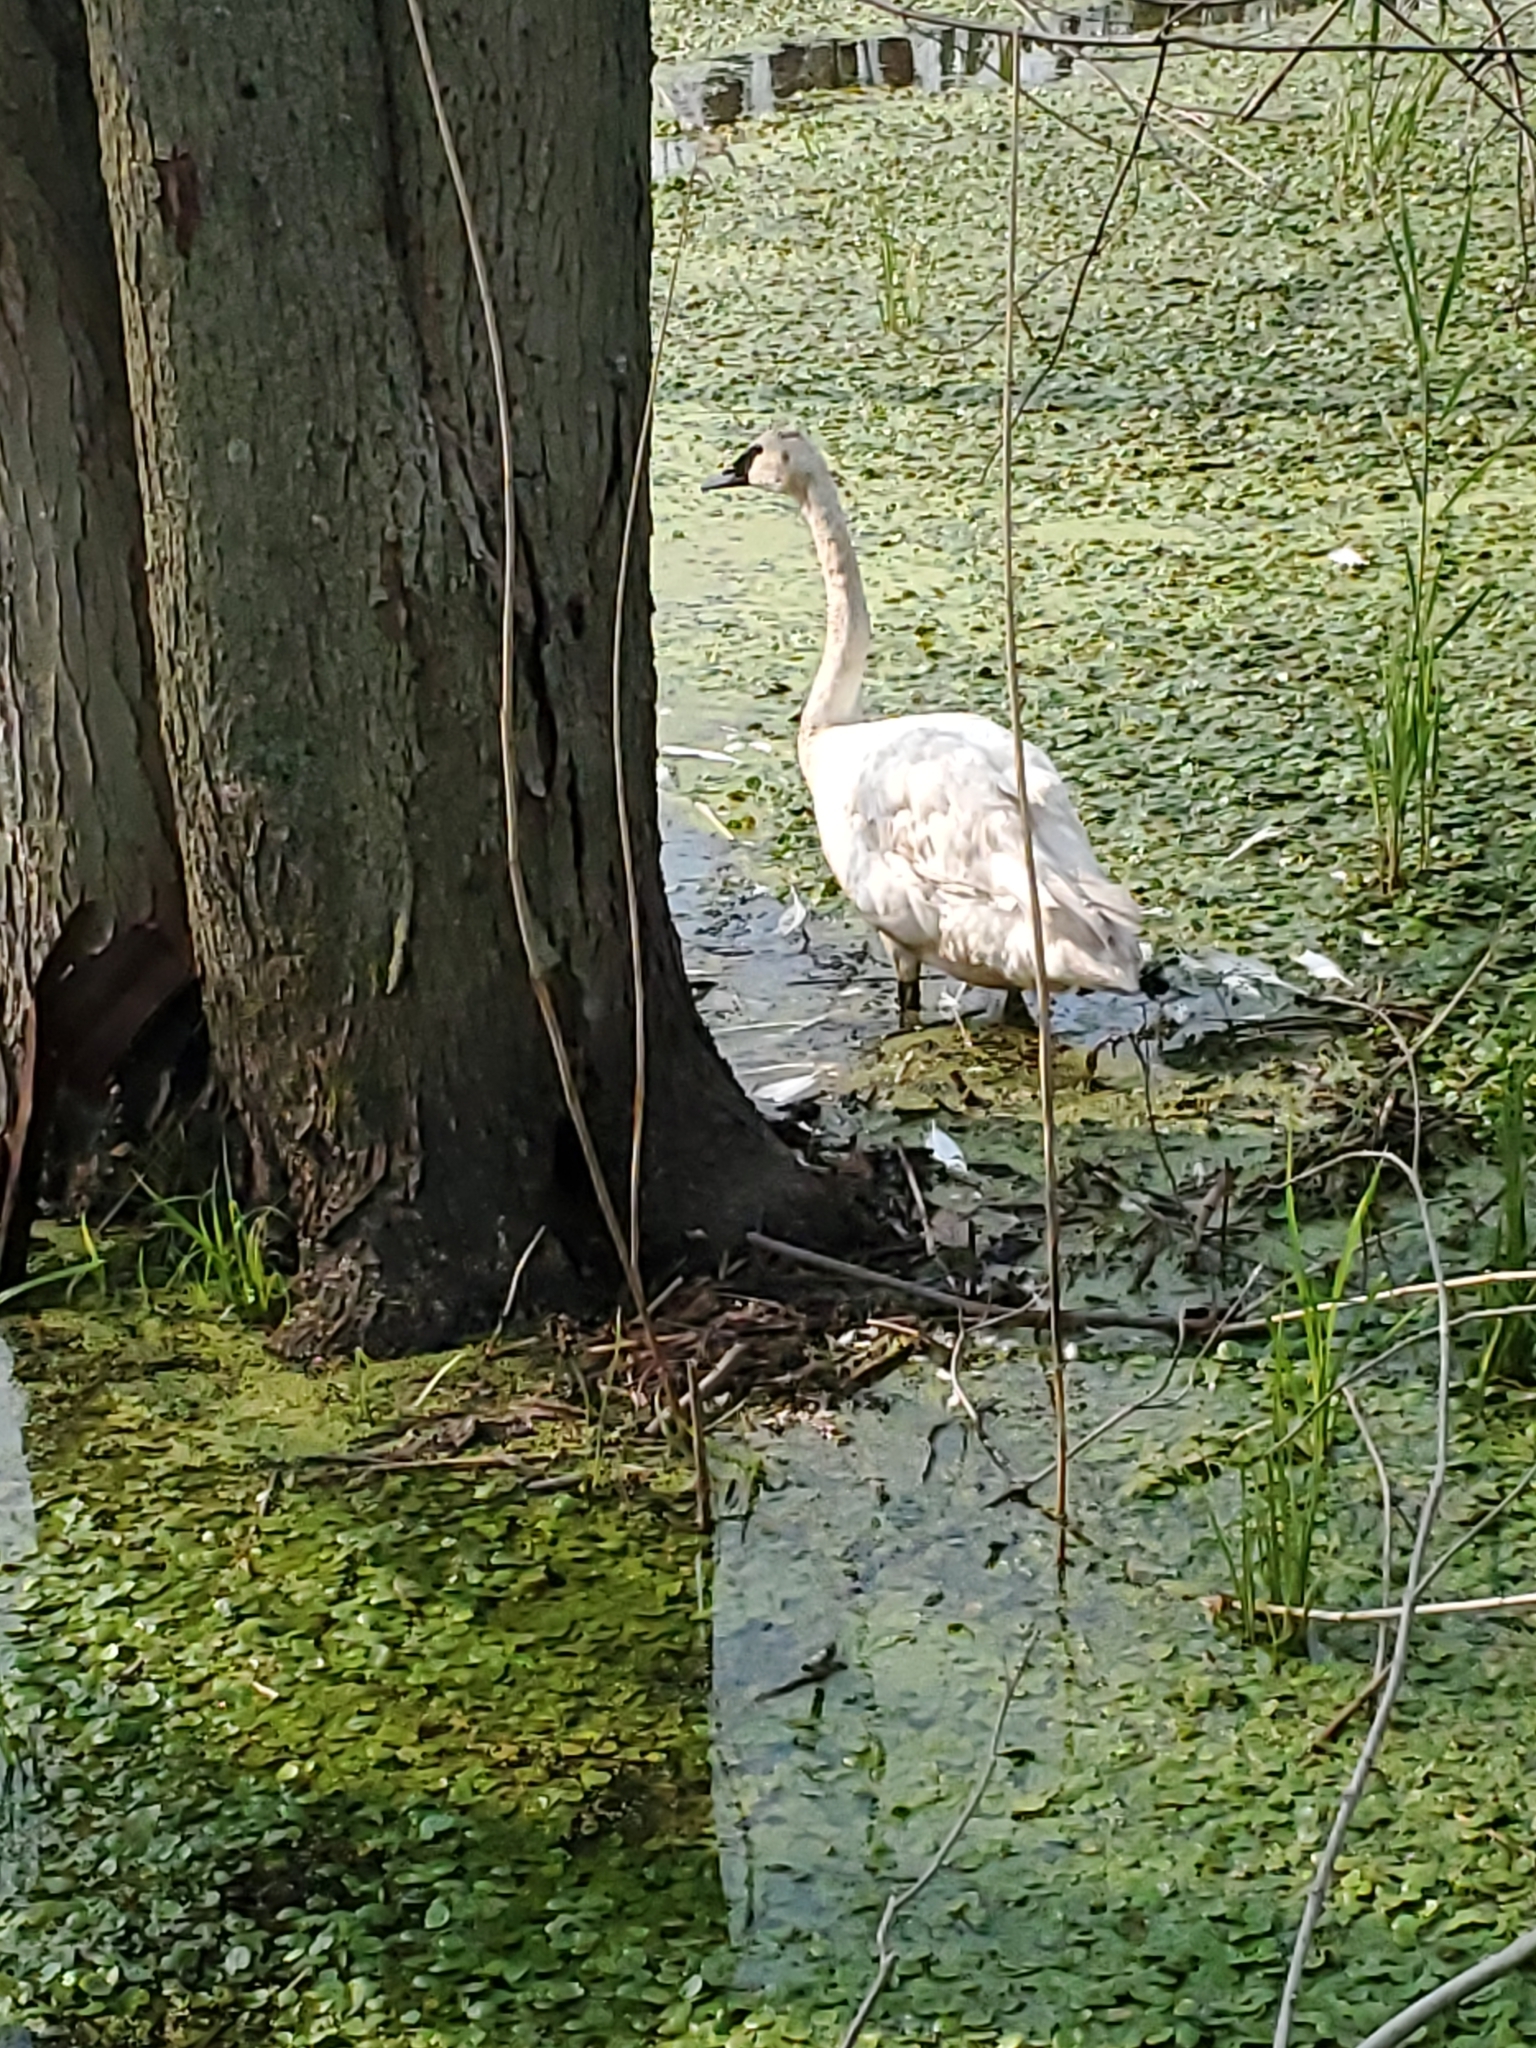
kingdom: Animalia
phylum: Chordata
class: Aves
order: Anseriformes
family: Anatidae
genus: Cygnus
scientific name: Cygnus buccinator
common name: Trumpeter swan
